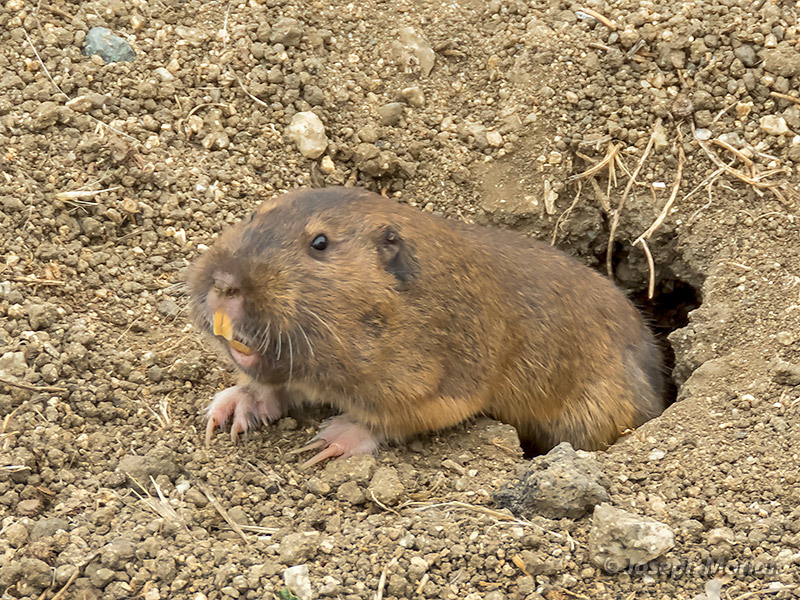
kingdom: Animalia
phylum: Chordata
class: Mammalia
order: Rodentia
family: Geomyidae
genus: Thomomys
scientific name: Thomomys bottae
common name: Botta's pocket gopher
